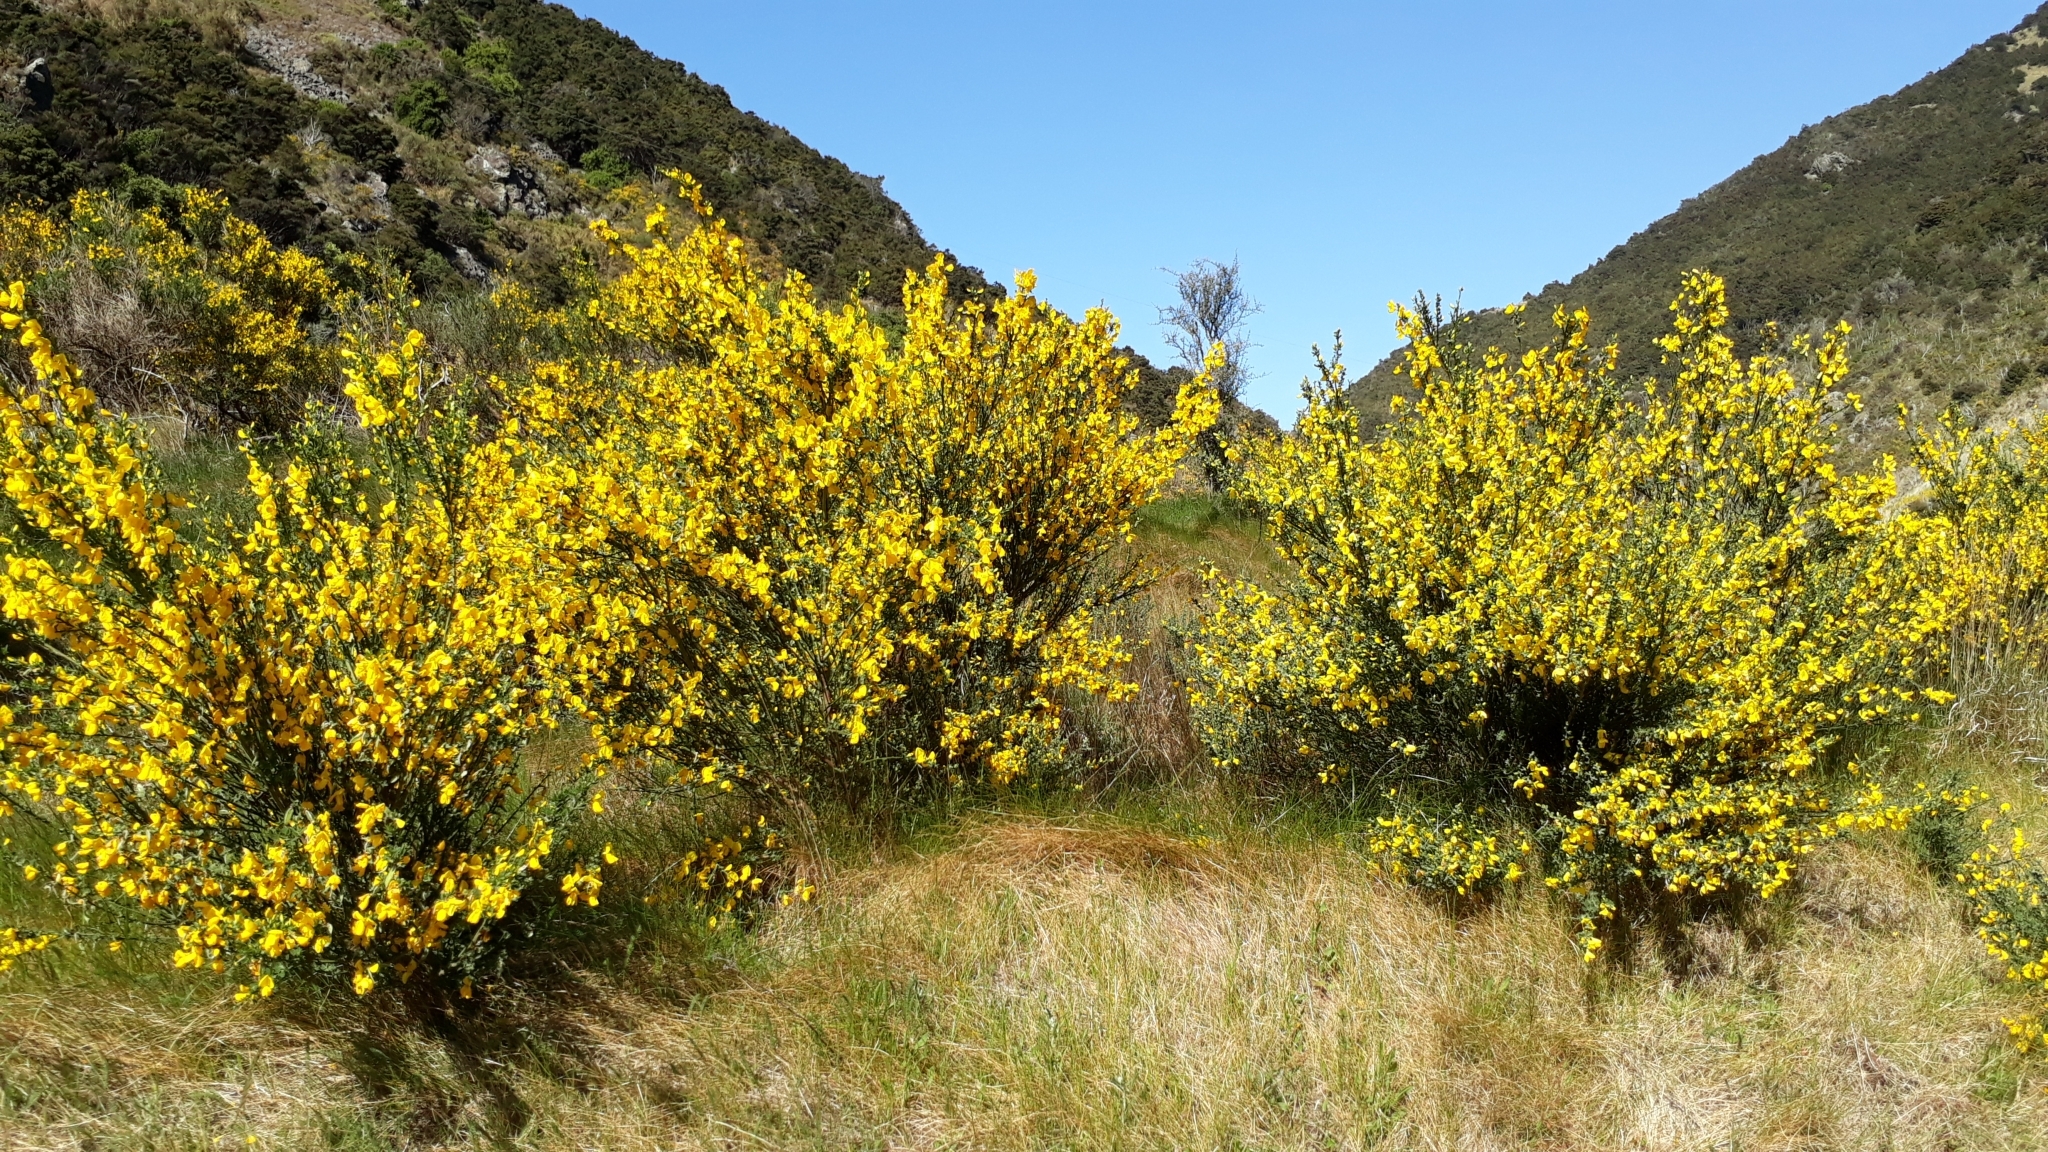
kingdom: Plantae
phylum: Tracheophyta
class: Magnoliopsida
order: Fabales
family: Fabaceae
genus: Cytisus
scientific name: Cytisus scoparius
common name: Scotch broom
